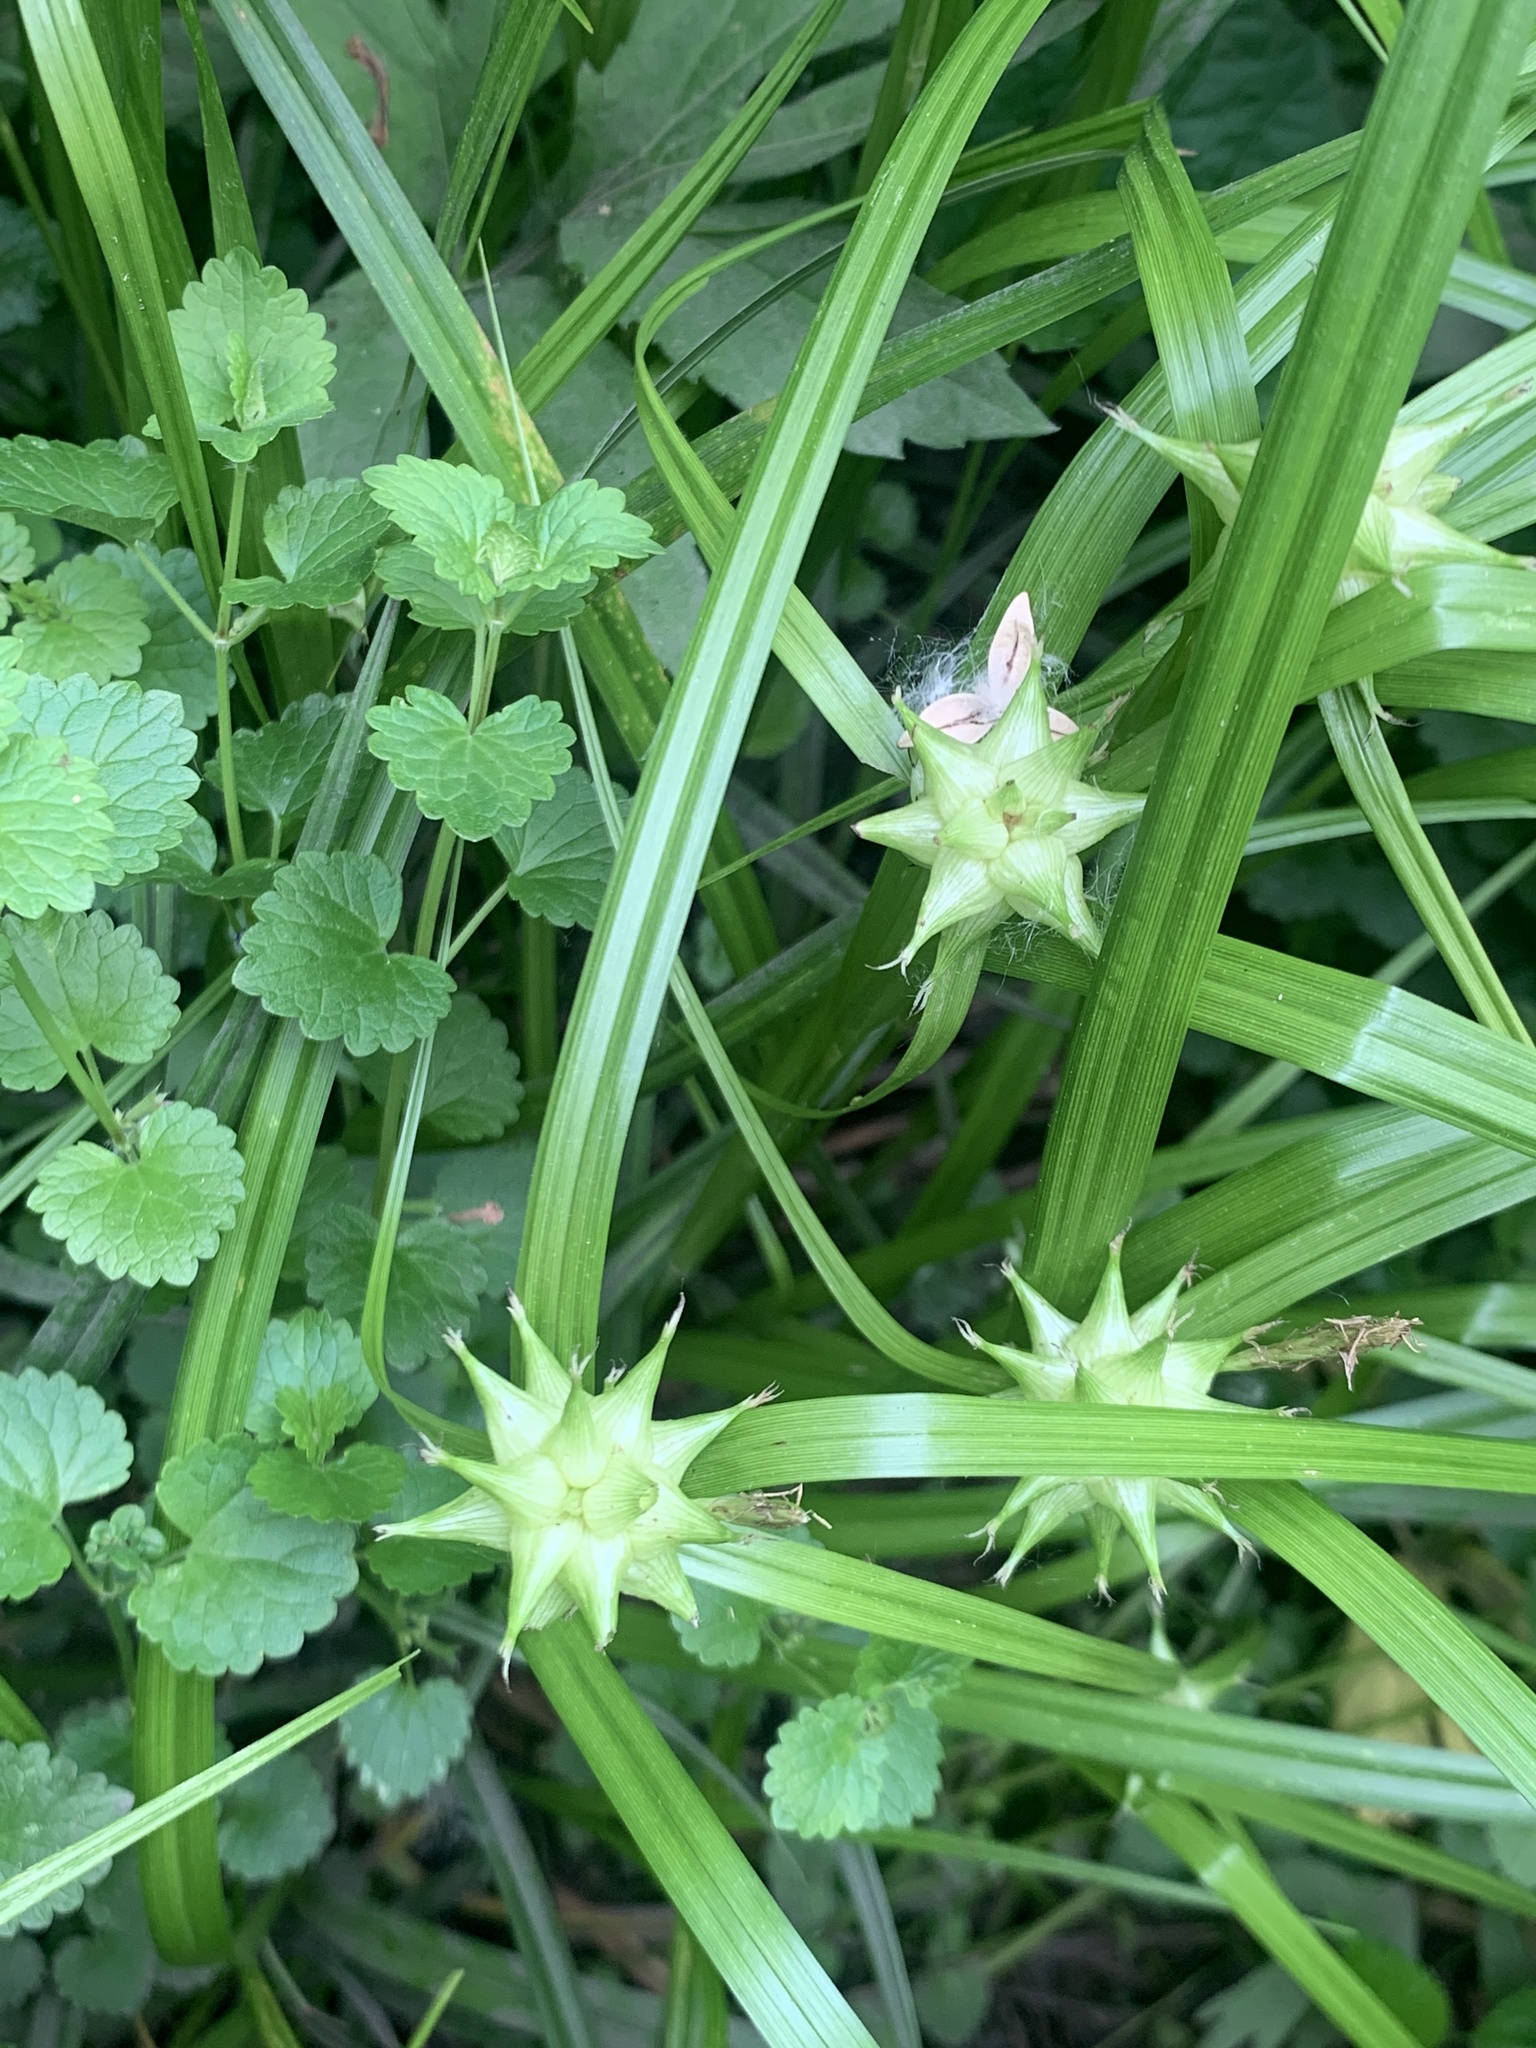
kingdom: Plantae
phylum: Tracheophyta
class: Liliopsida
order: Poales
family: Cyperaceae
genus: Carex
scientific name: Carex grayi
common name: Asa gray's sedge
